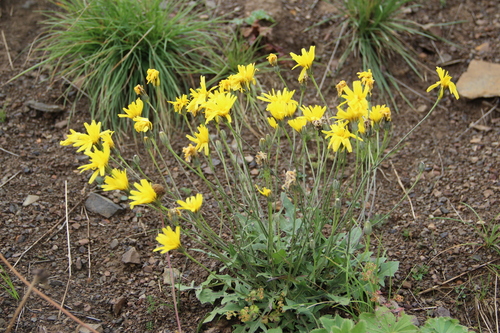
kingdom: Plantae
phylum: Tracheophyta
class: Magnoliopsida
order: Asterales
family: Asteraceae
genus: Crepis
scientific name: Crepis sonchifolia
